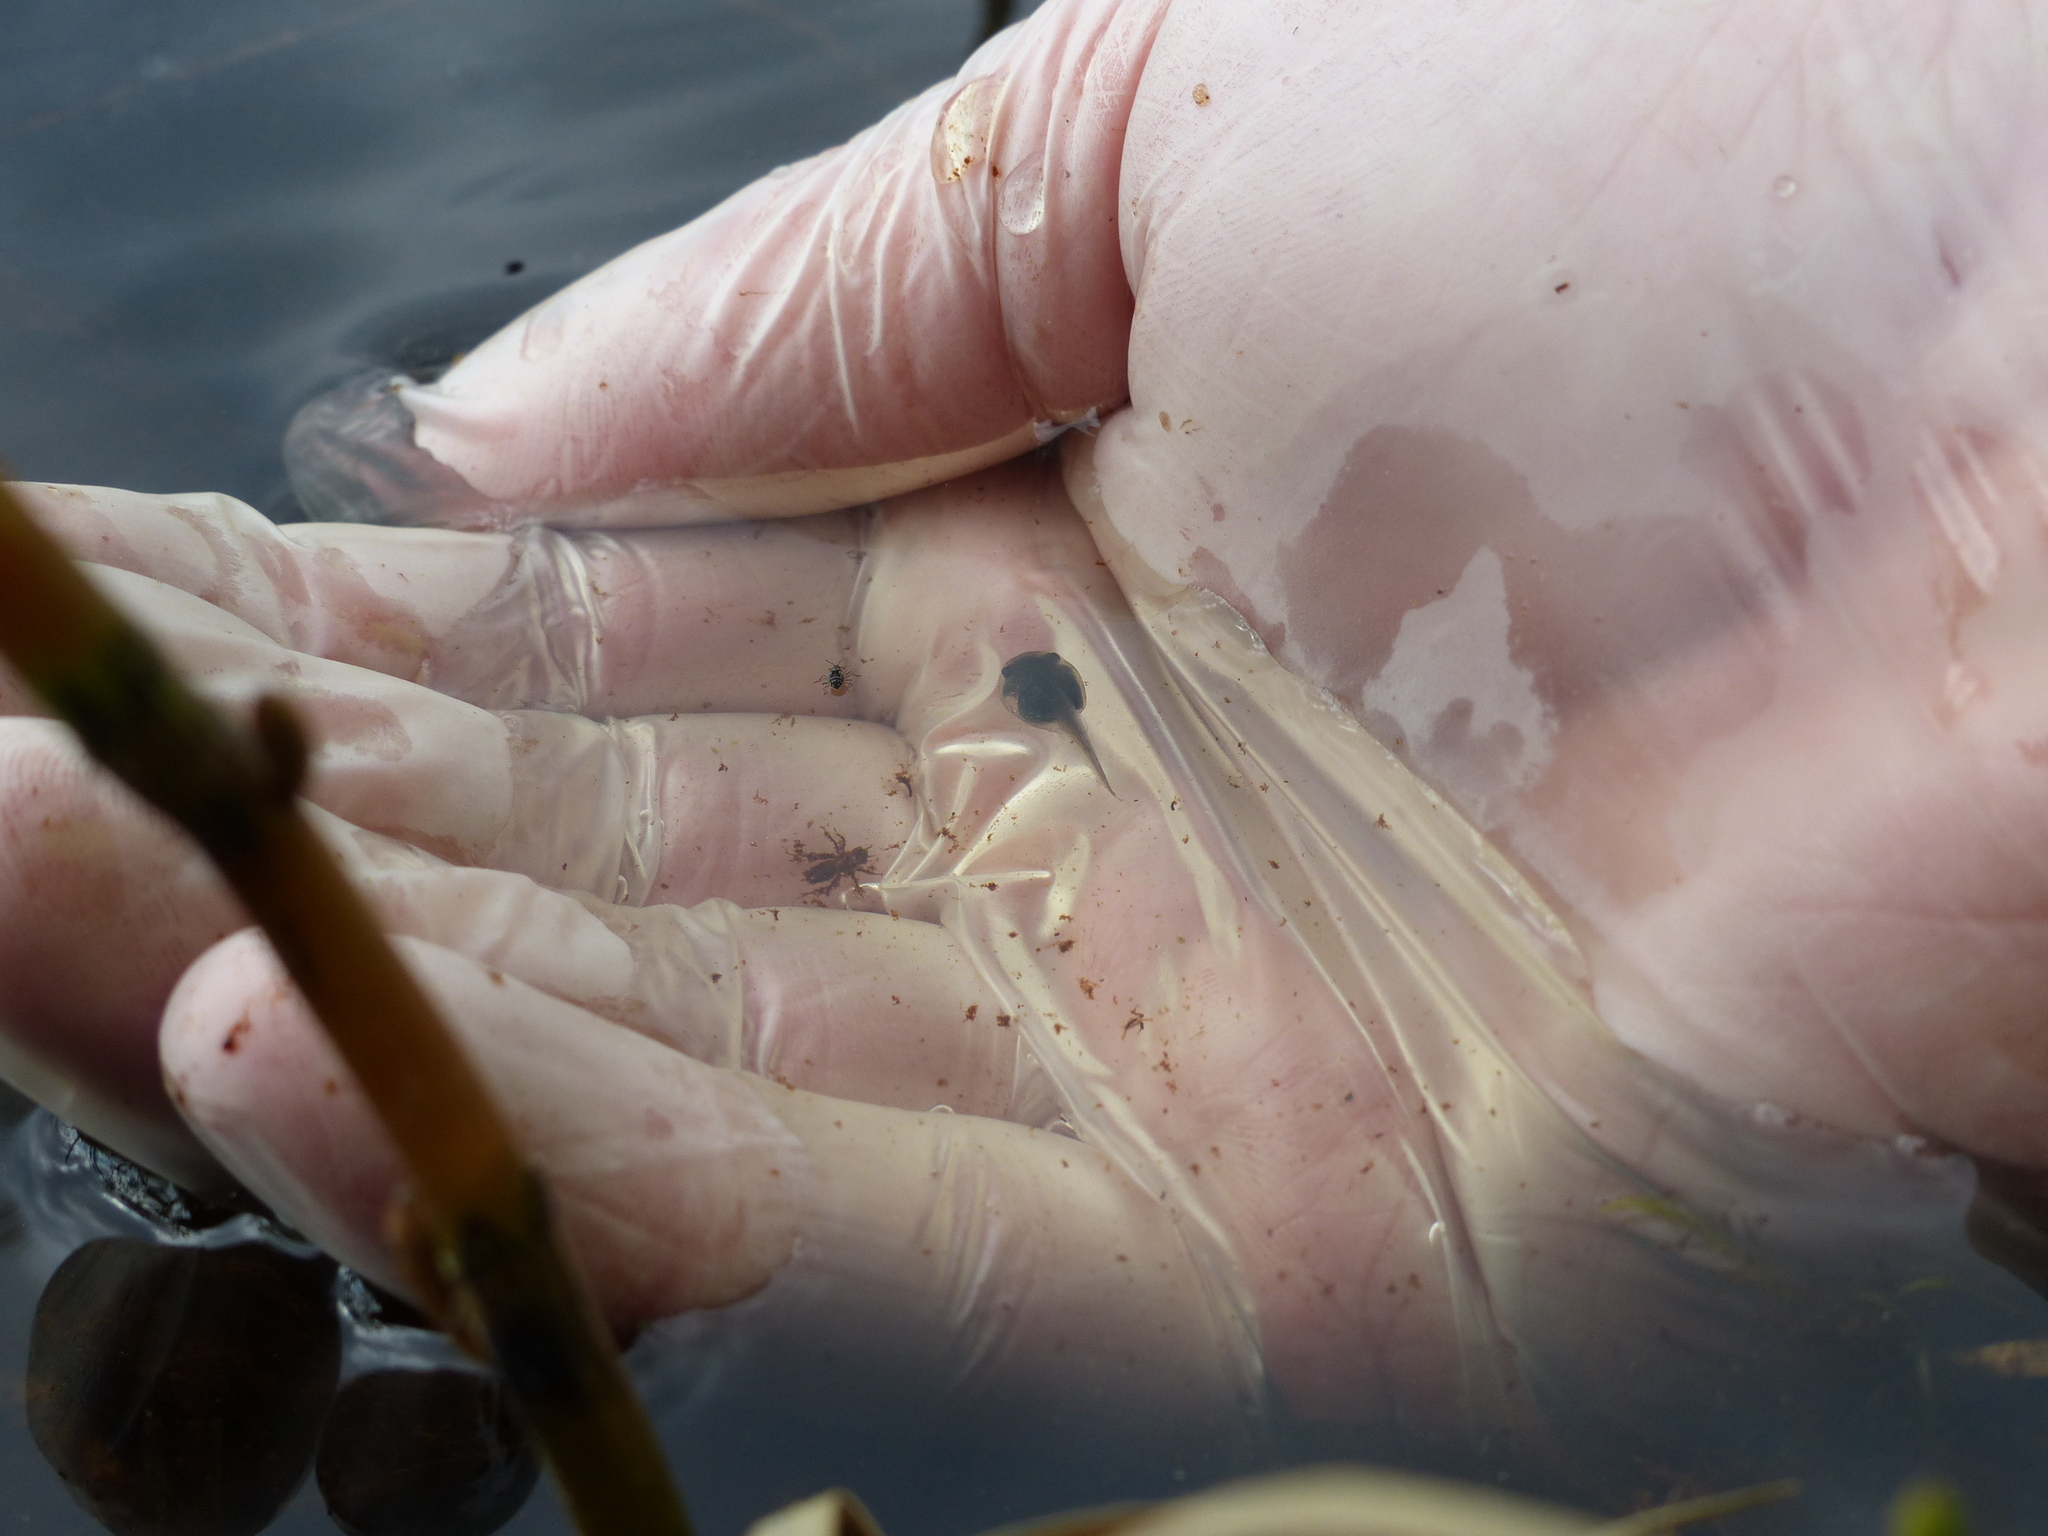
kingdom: Animalia
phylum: Chordata
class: Amphibia
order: Anura
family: Ranidae
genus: Lithobates
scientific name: Lithobates sylvaticus
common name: Wood frog
